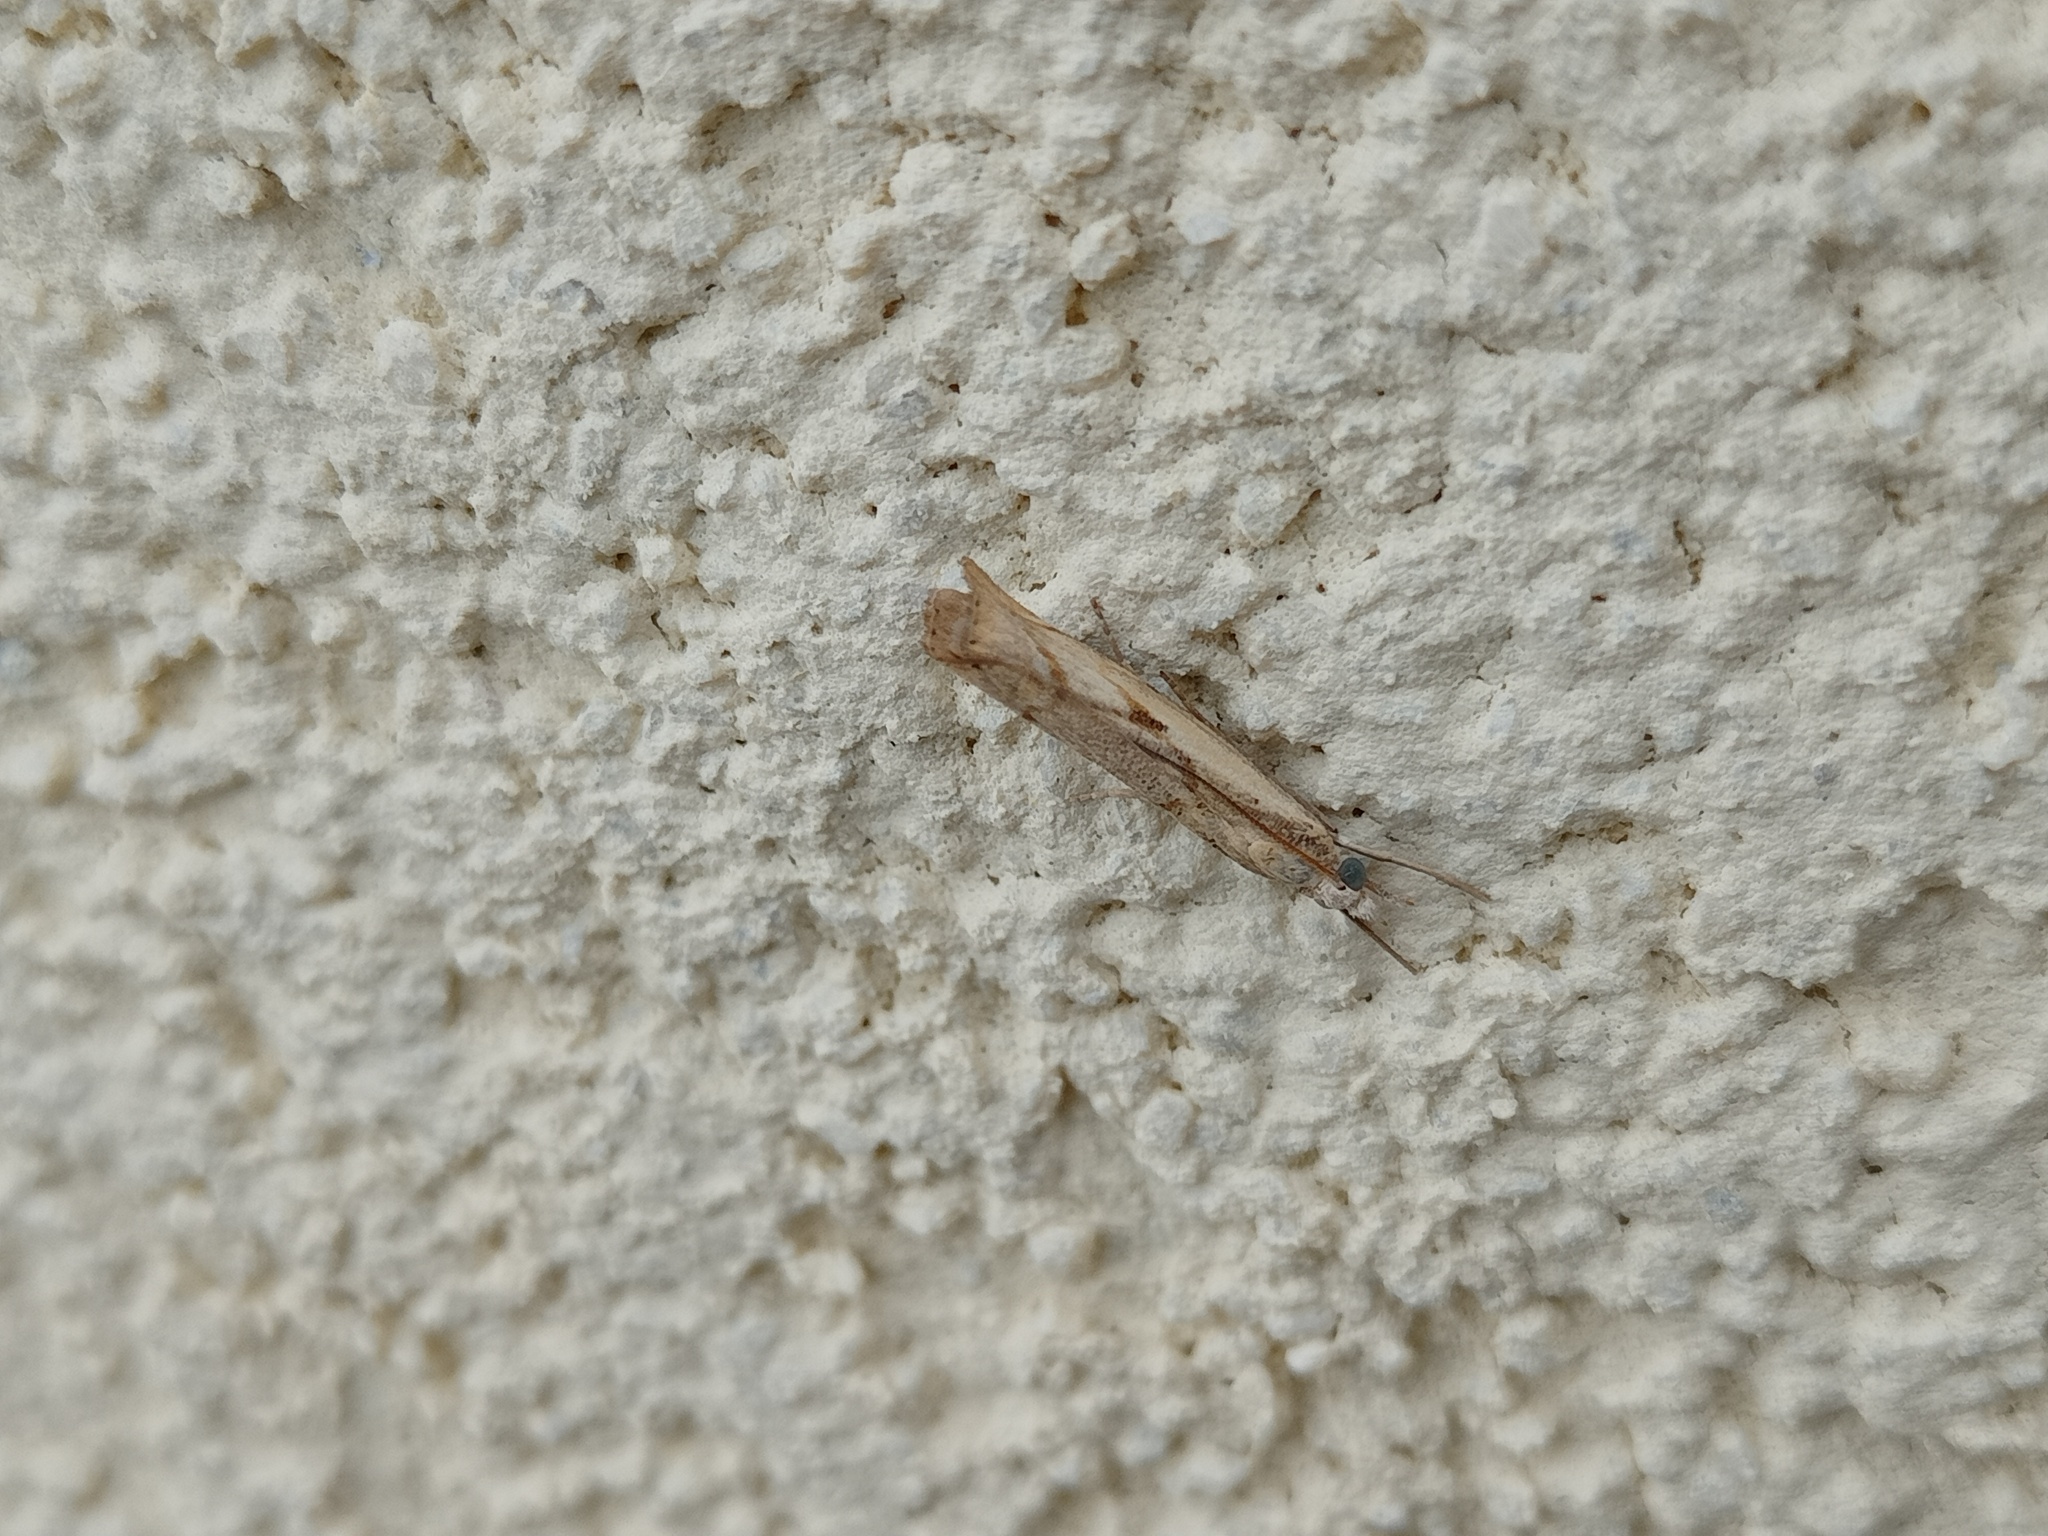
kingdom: Animalia
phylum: Arthropoda
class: Insecta
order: Lepidoptera
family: Crambidae
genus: Agriphila
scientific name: Agriphila inquinatella
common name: Barred grass-veneer
